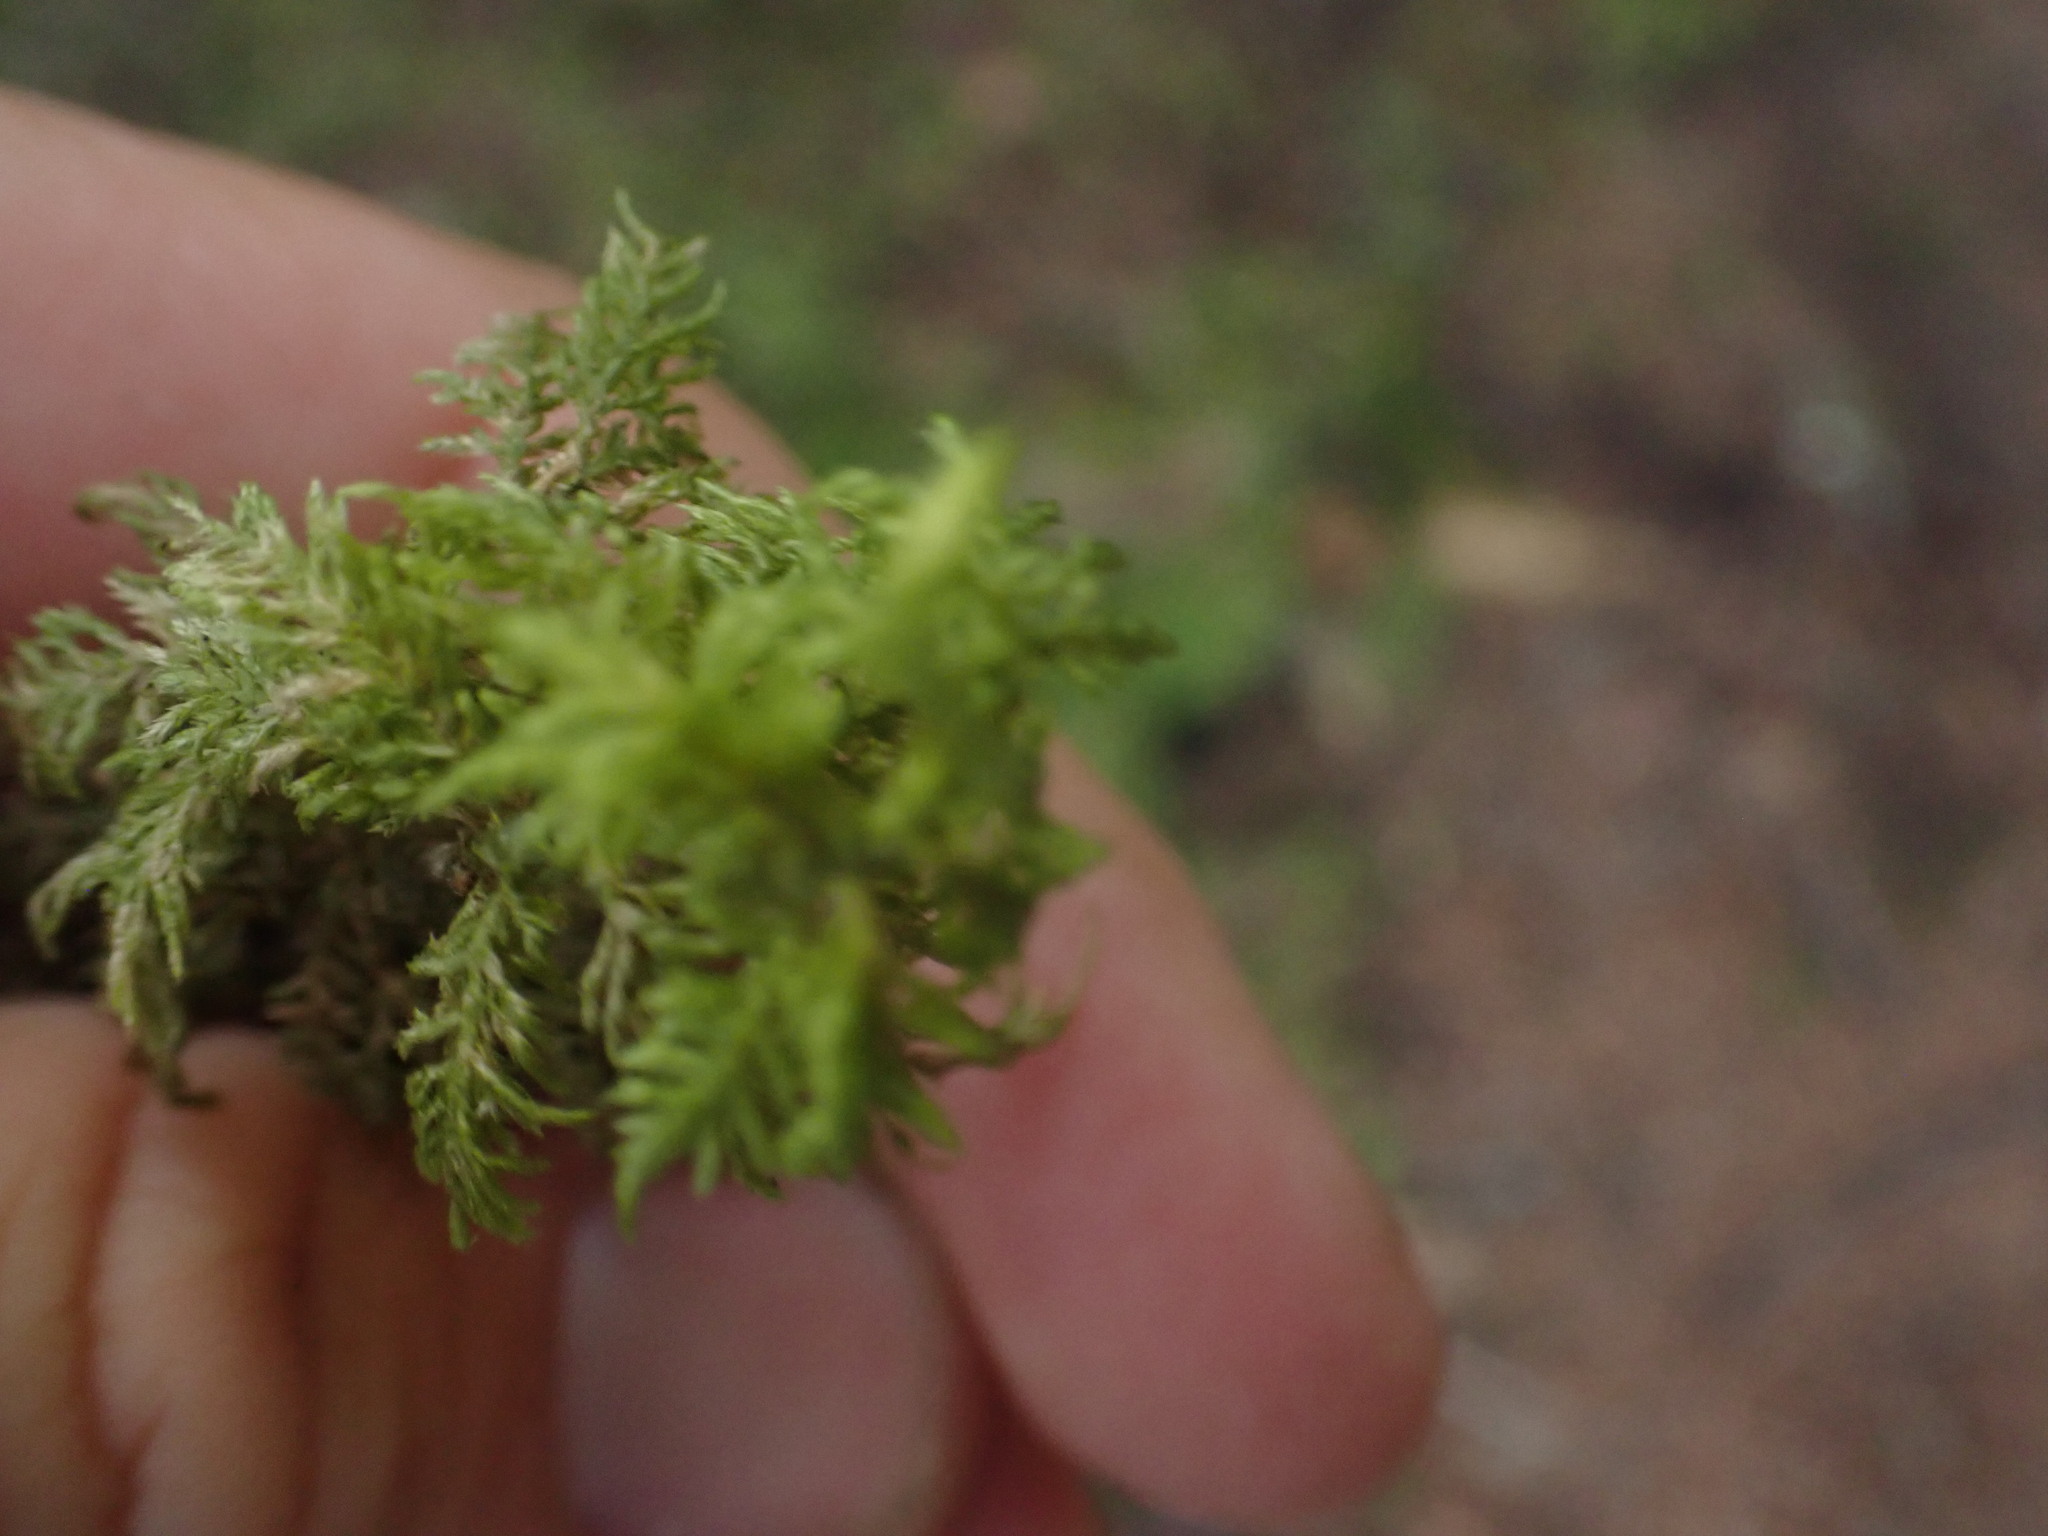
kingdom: Plantae
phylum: Bryophyta
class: Bryopsida
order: Hypnales
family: Hylocomiaceae
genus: Hylocomium
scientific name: Hylocomium splendens
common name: Stairstep moss
